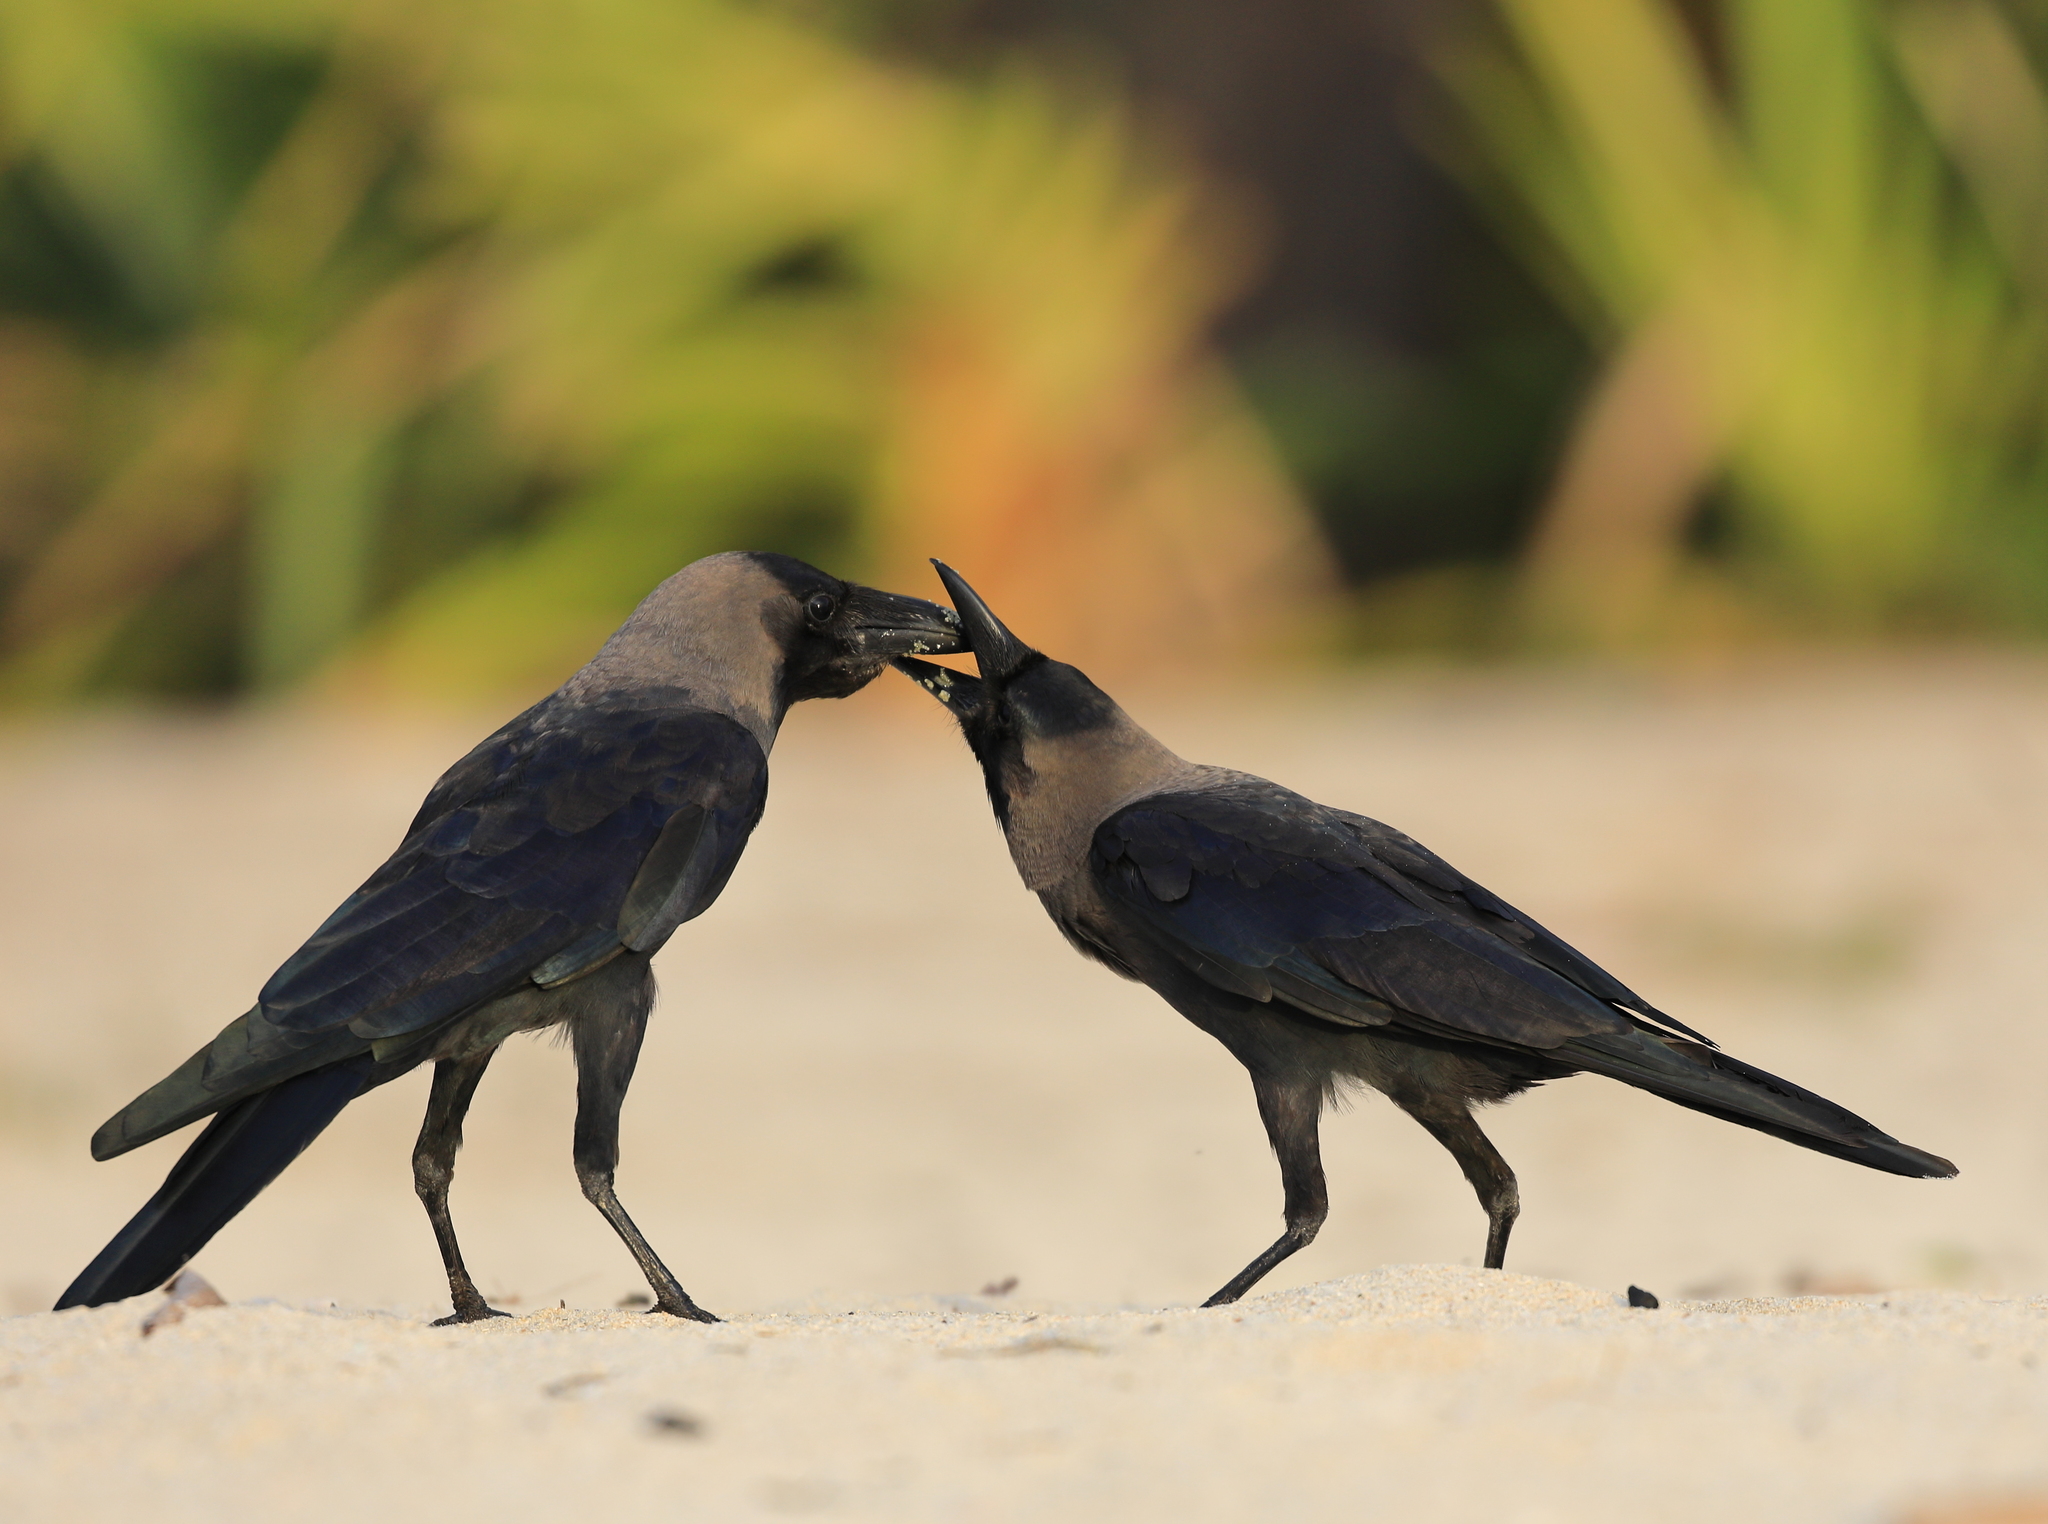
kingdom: Animalia
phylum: Chordata
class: Aves
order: Passeriformes
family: Corvidae
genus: Corvus
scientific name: Corvus splendens
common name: House crow
